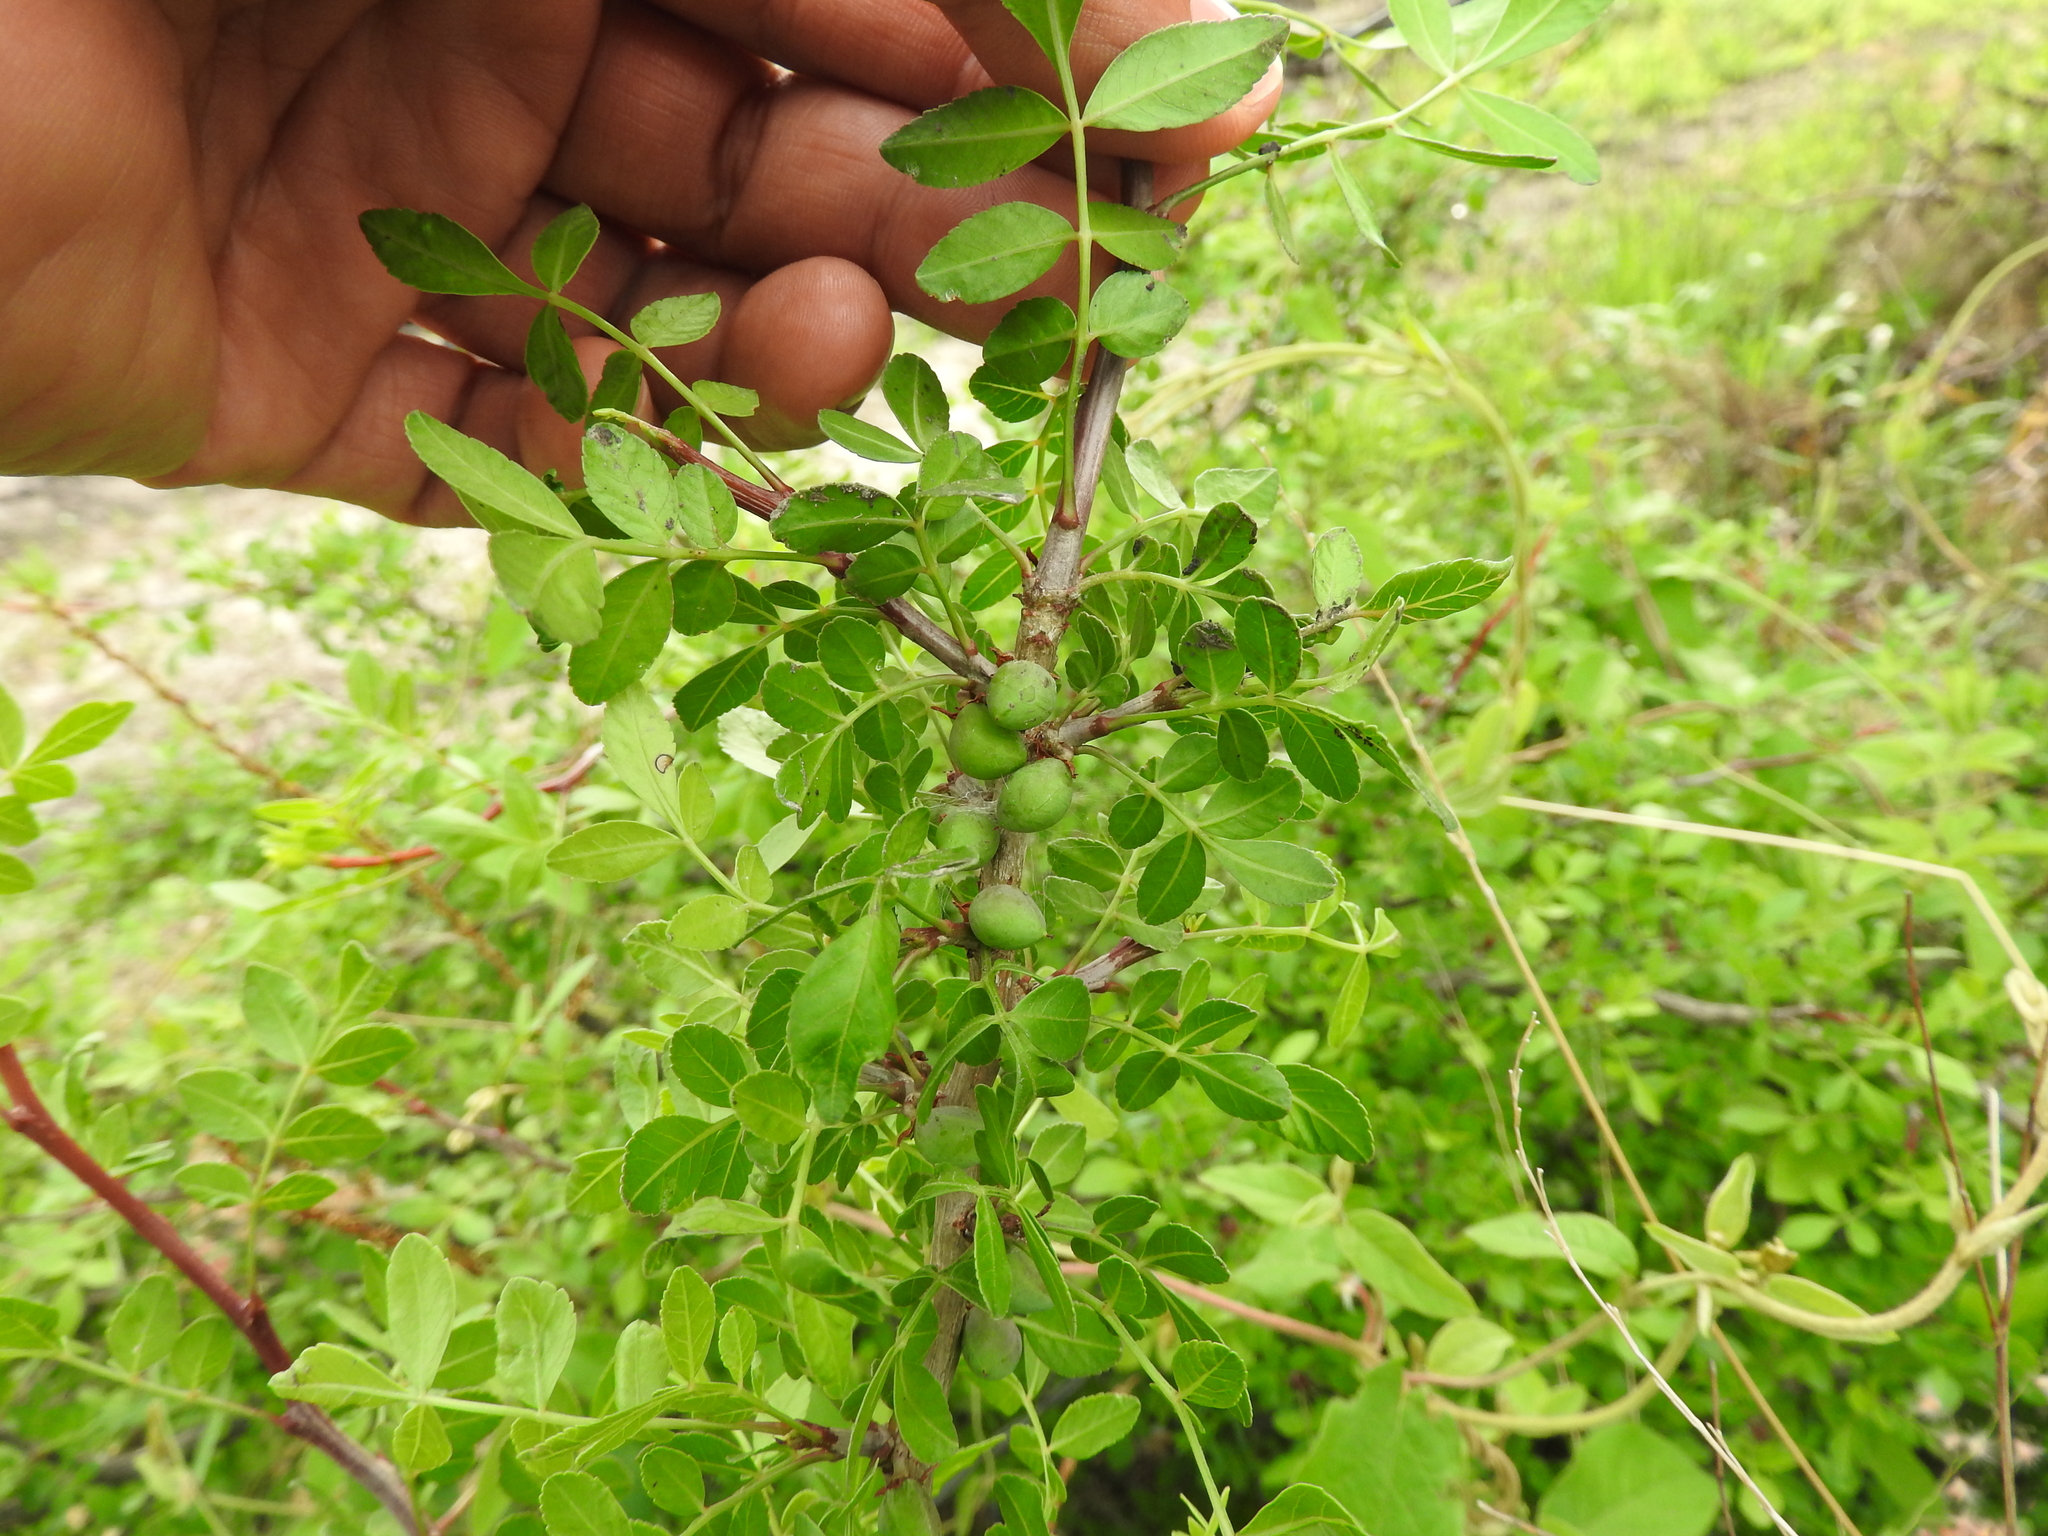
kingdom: Plantae
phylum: Tracheophyta
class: Magnoliopsida
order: Sapindales
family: Burseraceae
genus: Bursera
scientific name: Bursera fagaroides
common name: Elephant tree
